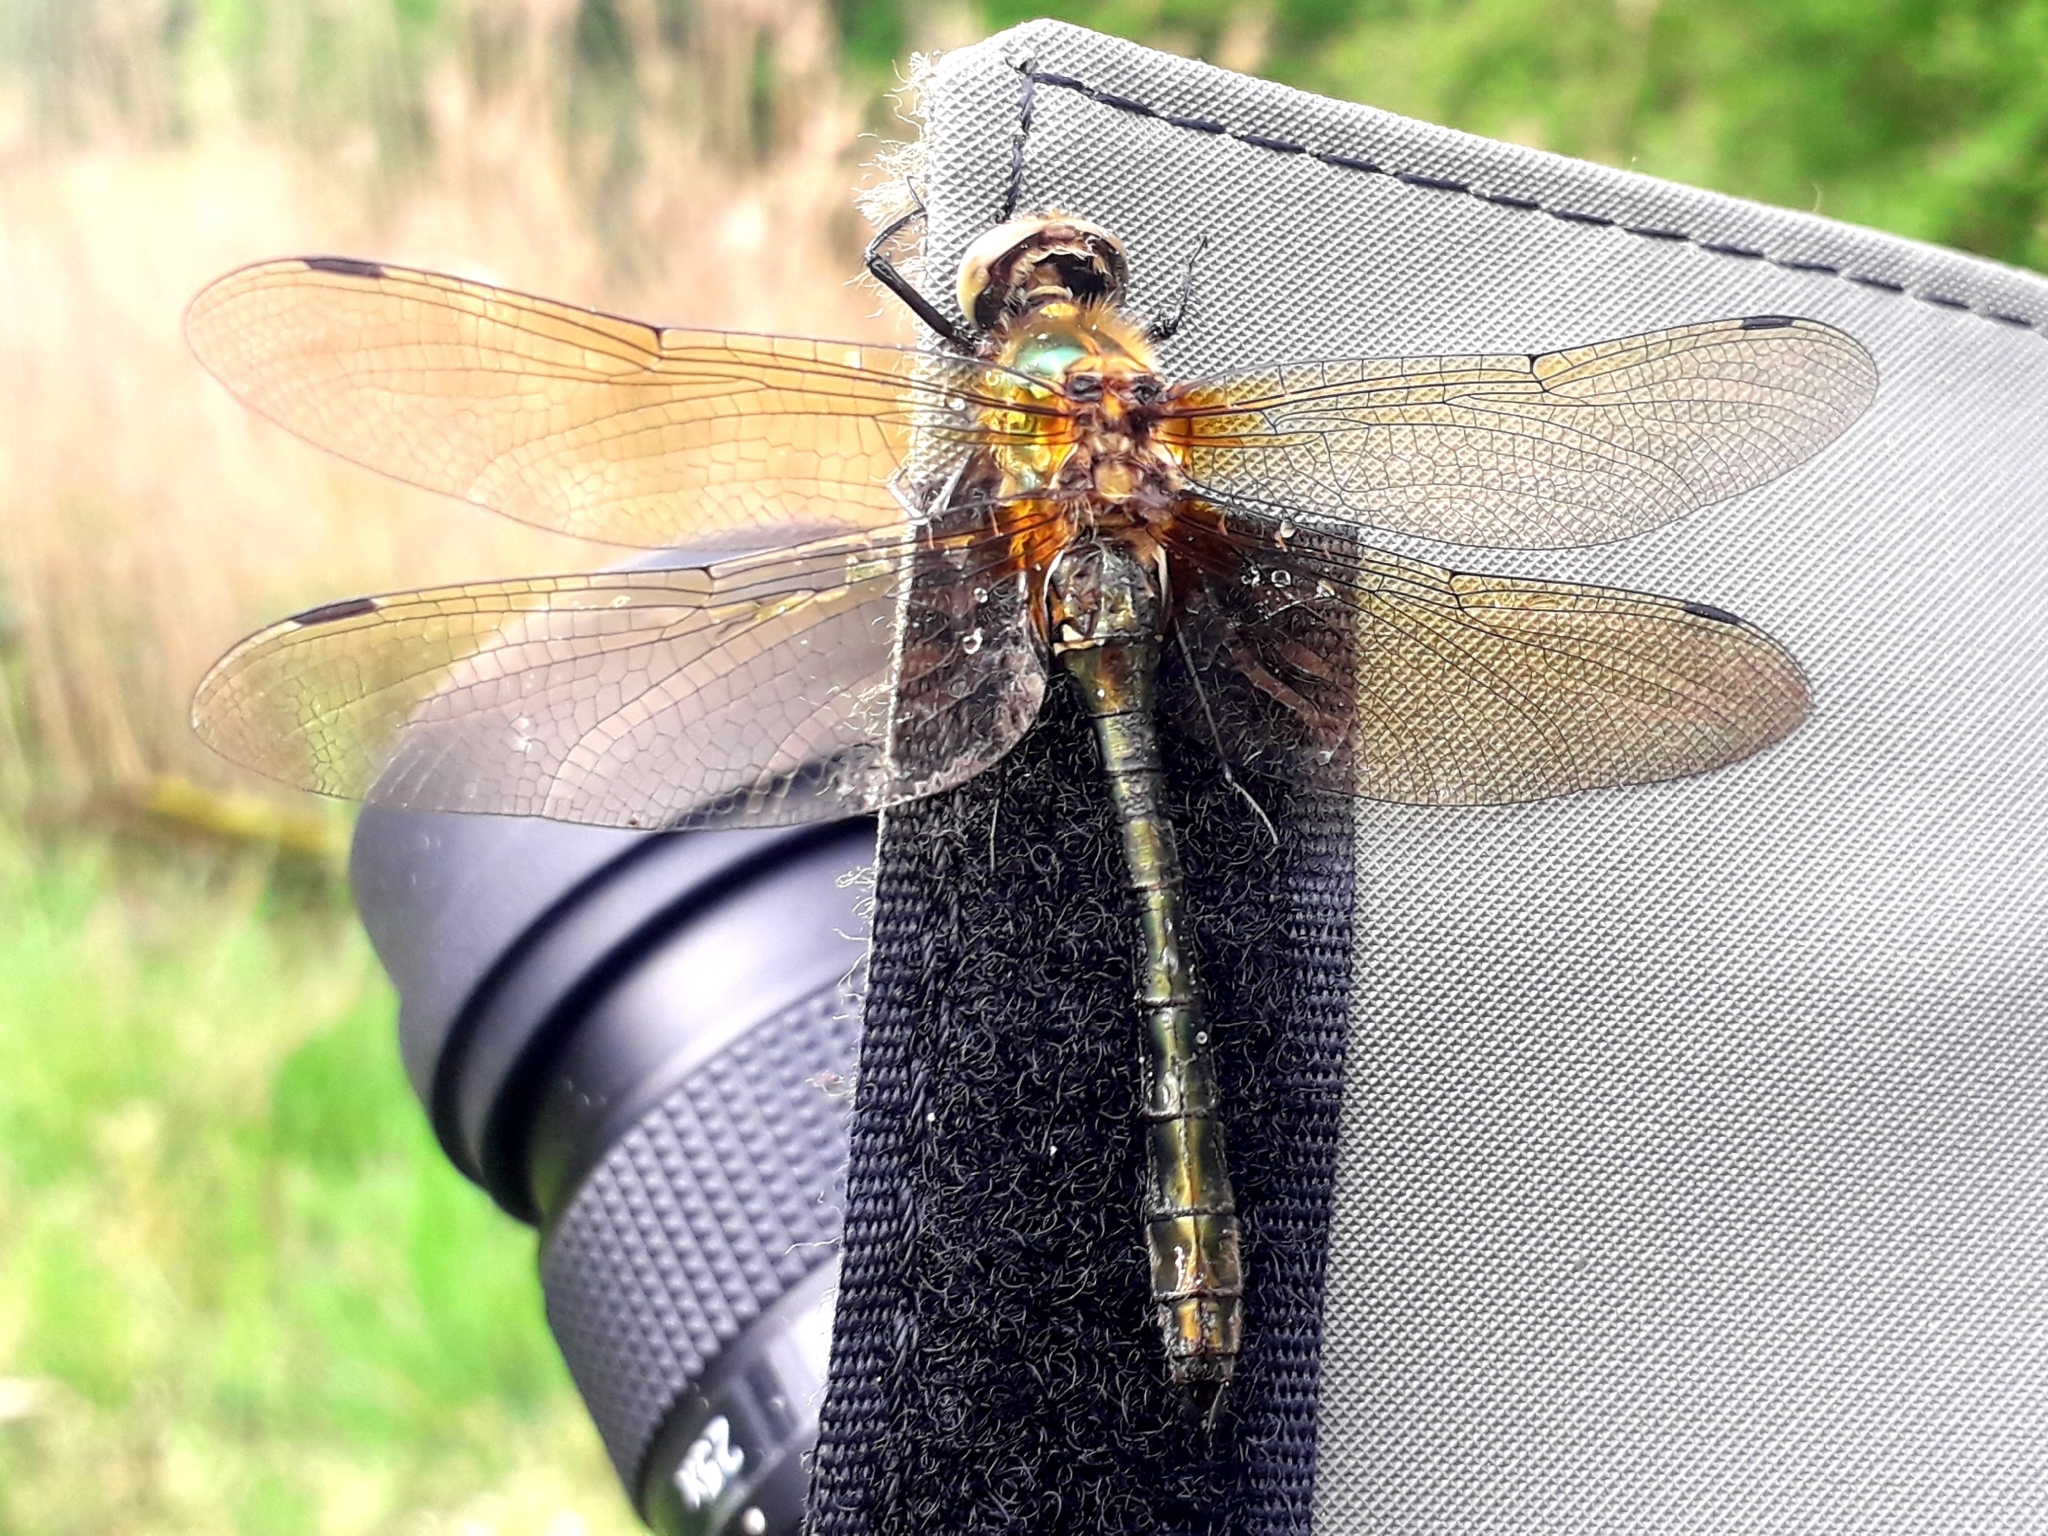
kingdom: Animalia
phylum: Arthropoda
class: Insecta
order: Odonata
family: Corduliidae
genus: Cordulia
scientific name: Cordulia aenea
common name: Downy emerald
